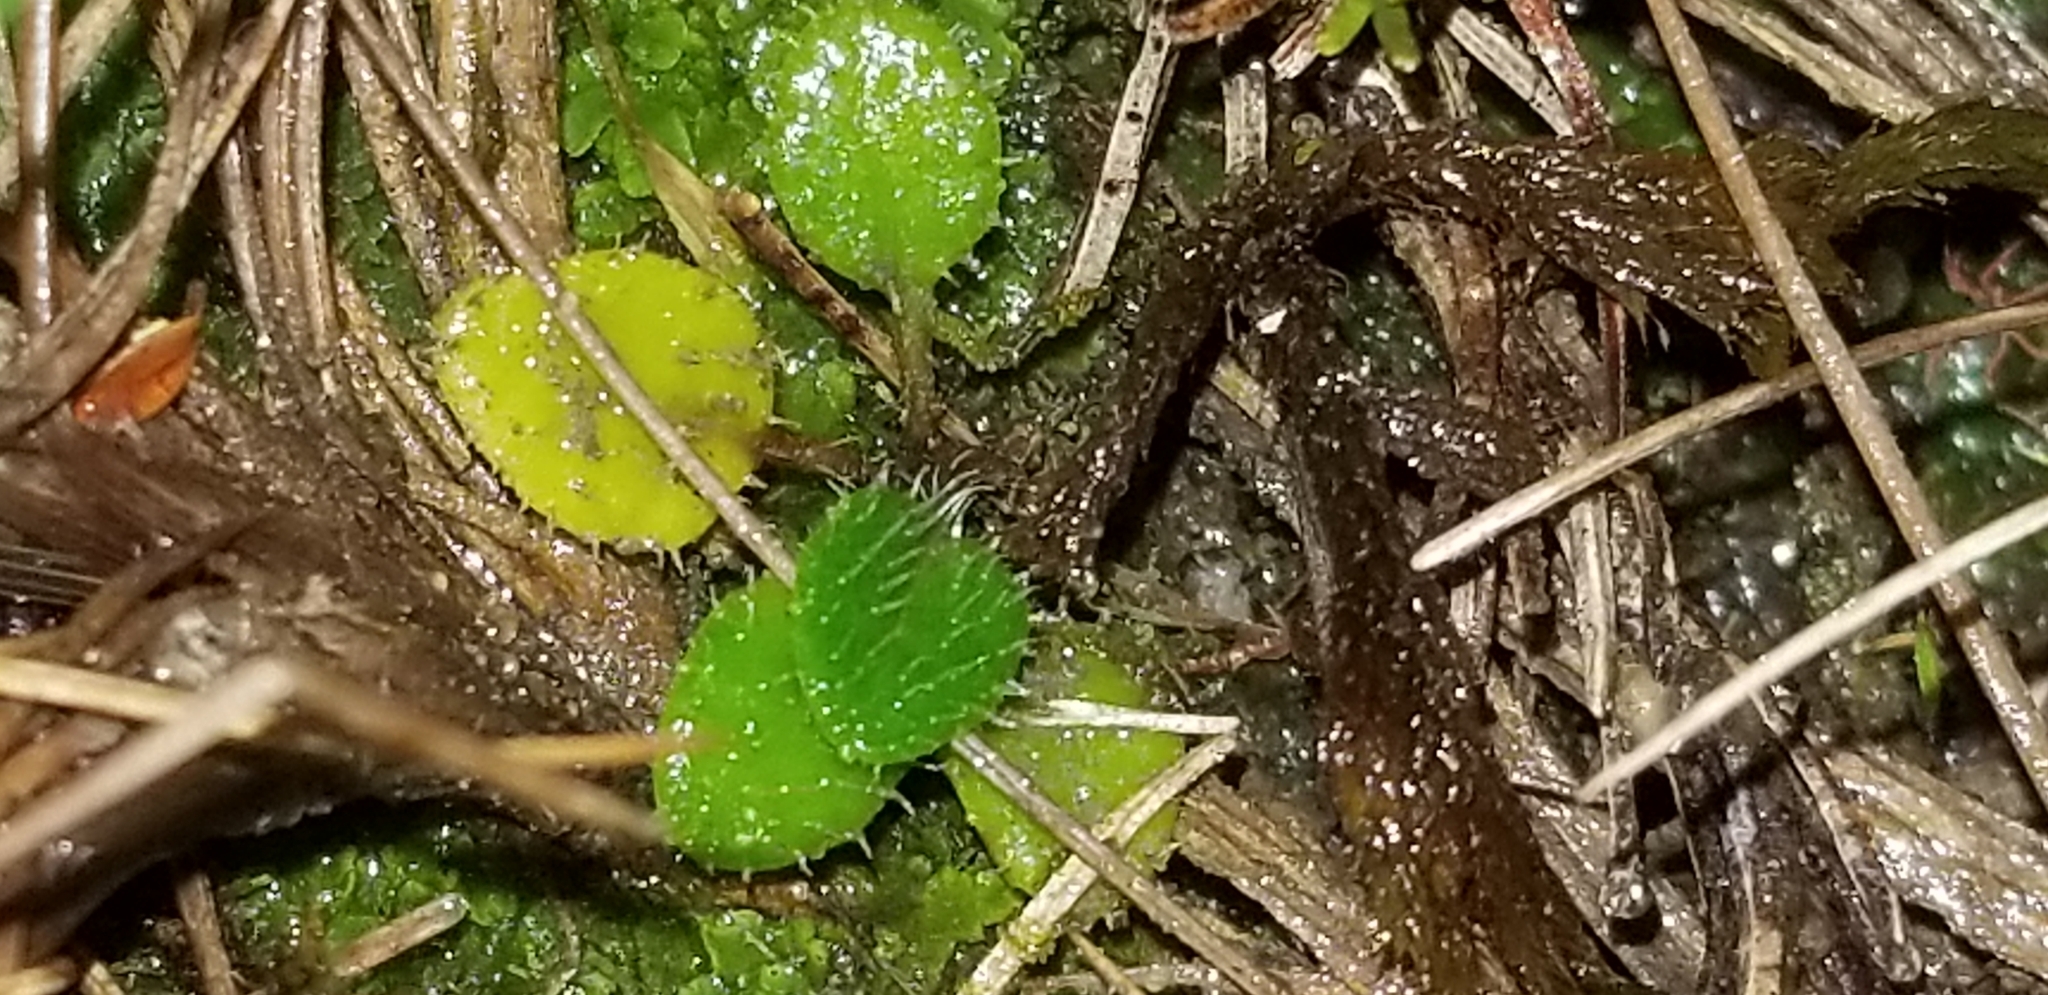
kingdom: Plantae
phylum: Tracheophyta
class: Magnoliopsida
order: Asterales
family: Asteraceae
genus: Brachyglottis
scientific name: Brachyglottis traversii
